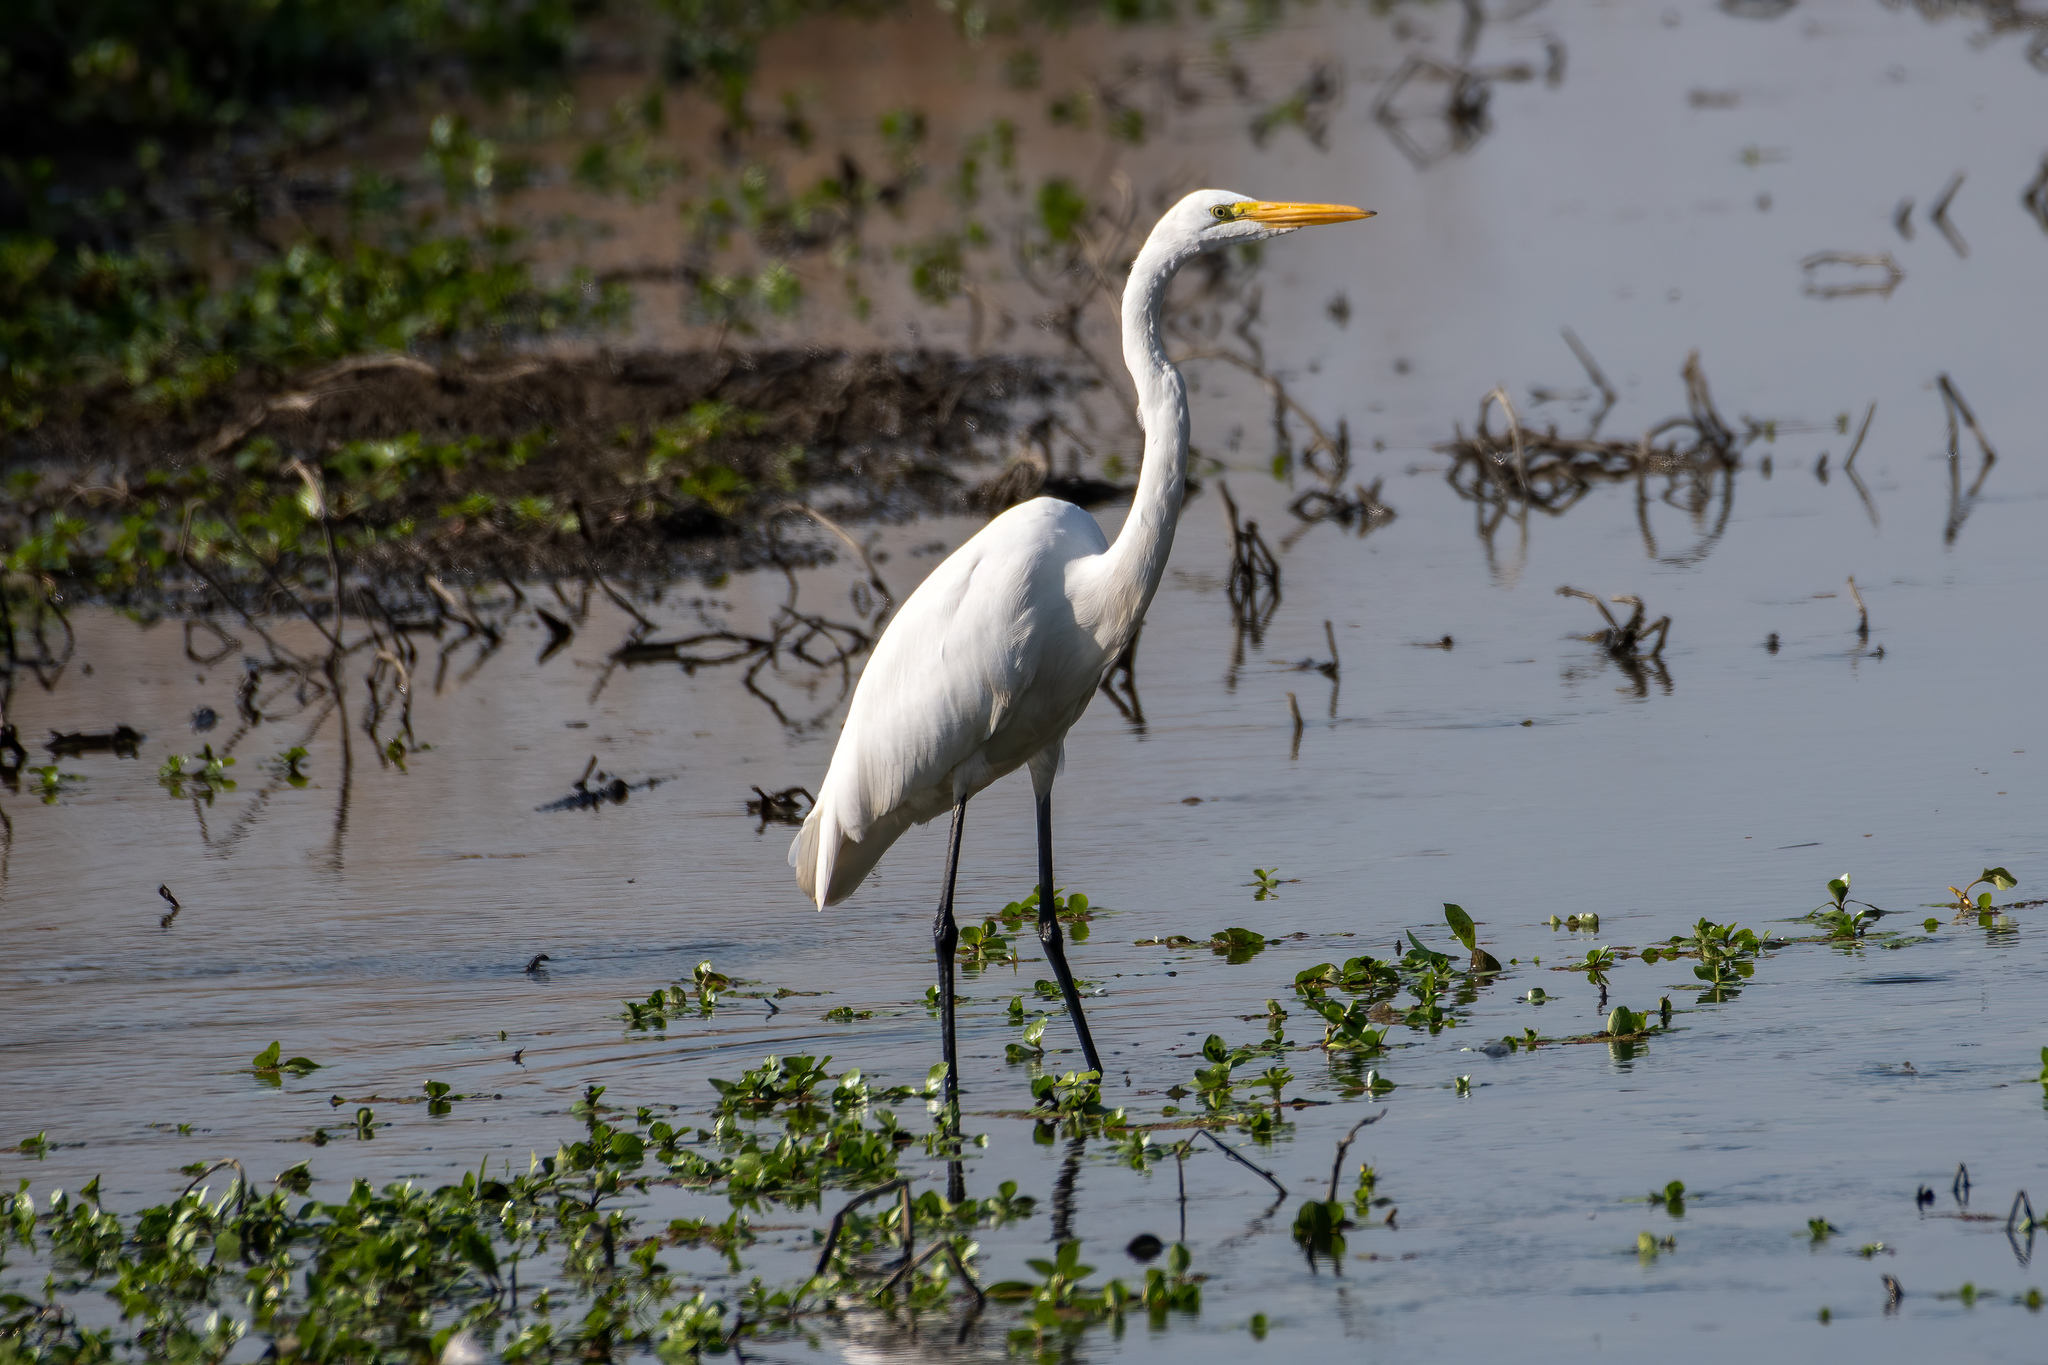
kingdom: Animalia
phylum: Chordata
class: Aves
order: Pelecaniformes
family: Ardeidae
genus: Ardea
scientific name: Ardea alba
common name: Great egret
